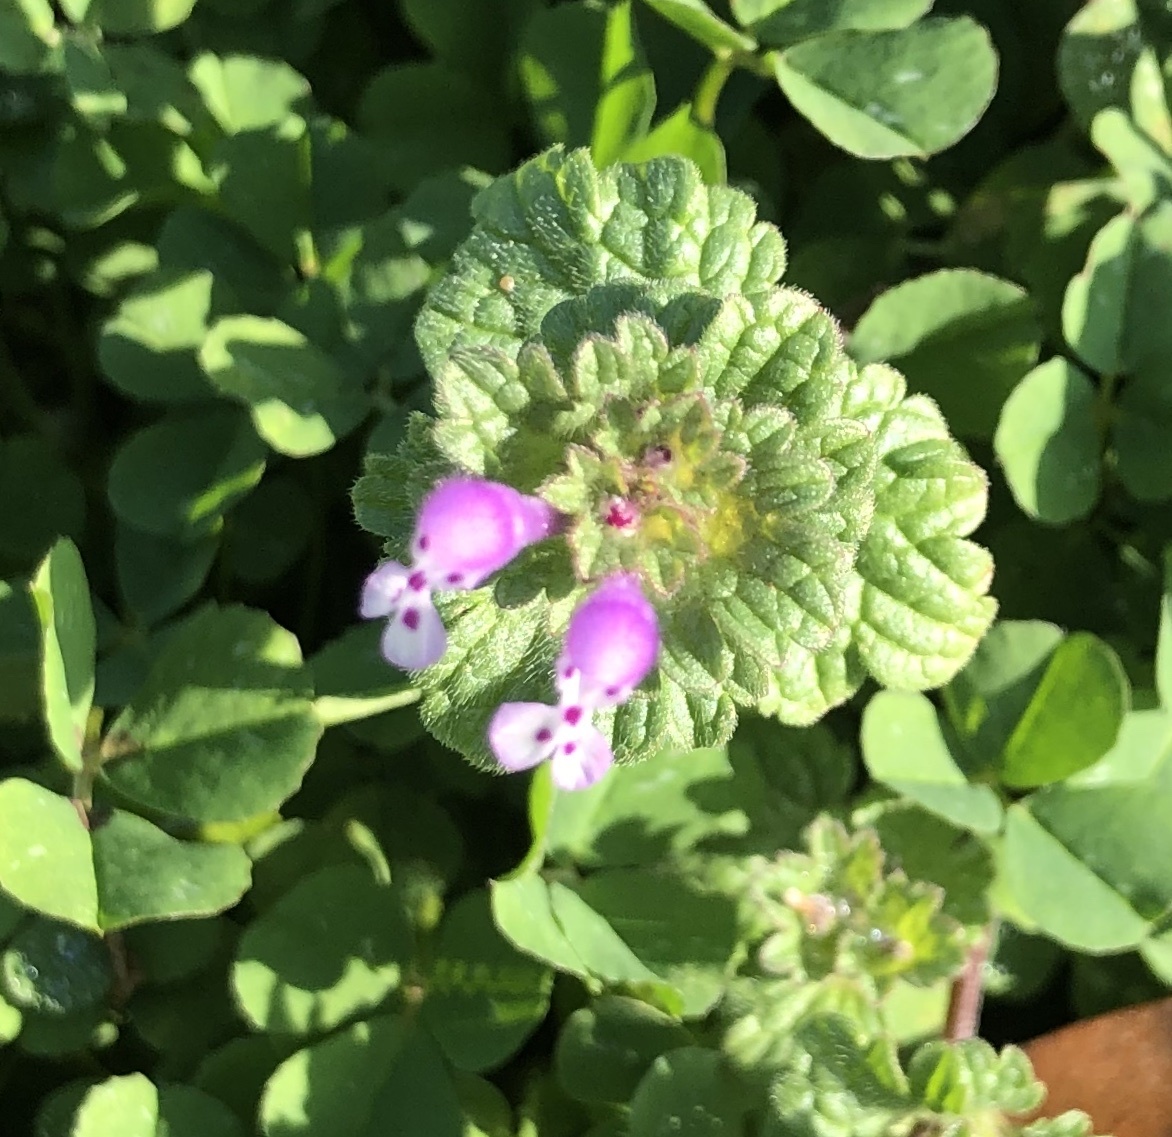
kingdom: Plantae
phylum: Tracheophyta
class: Magnoliopsida
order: Lamiales
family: Lamiaceae
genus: Lamium
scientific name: Lamium amplexicaule
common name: Henbit dead-nettle
